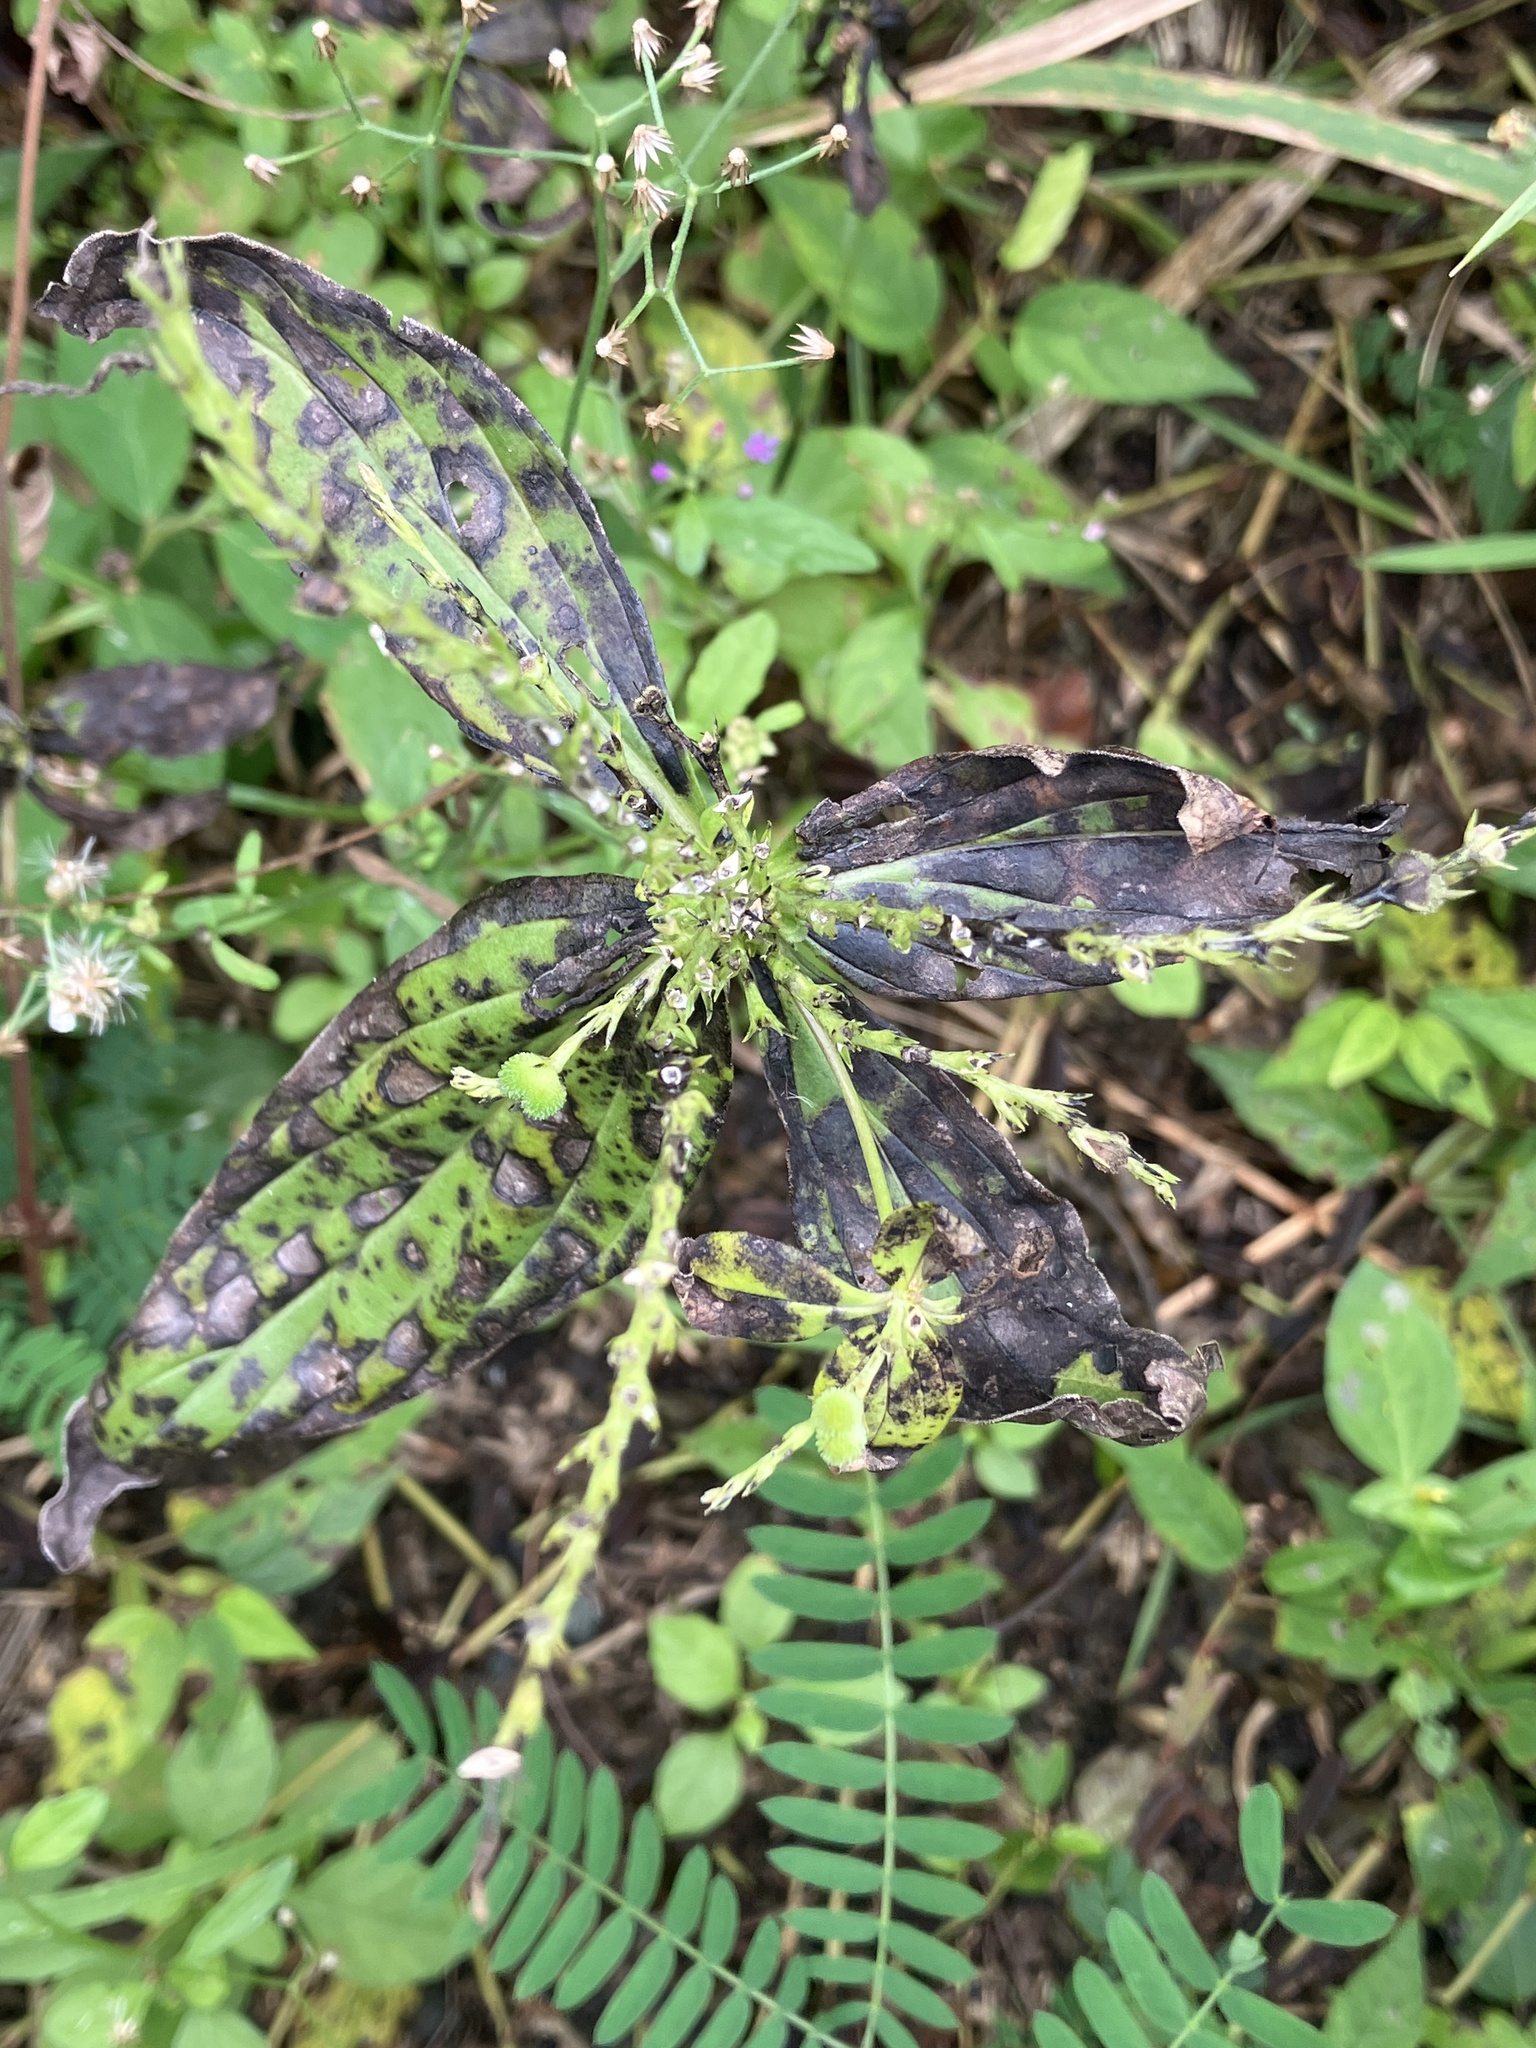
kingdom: Plantae
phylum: Tracheophyta
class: Magnoliopsida
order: Gentianales
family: Loganiaceae
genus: Spigelia
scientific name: Spigelia anthelmia
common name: West indian-pink
